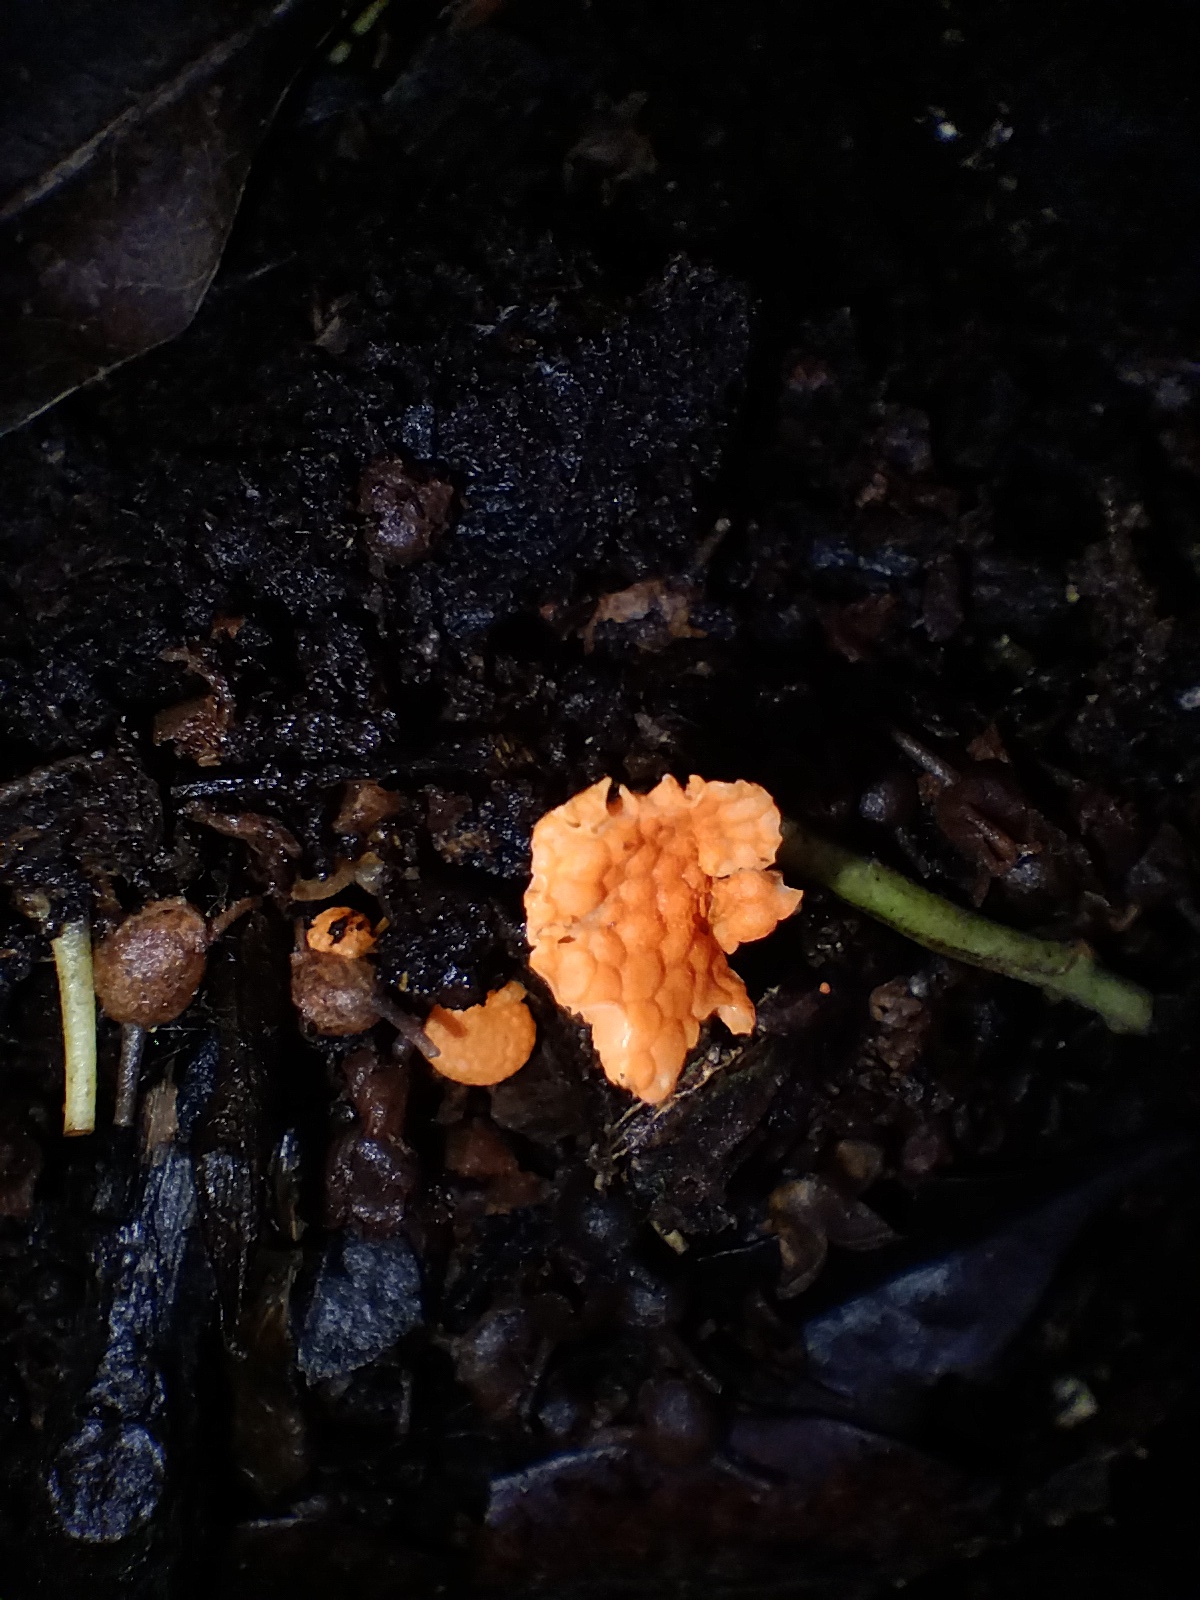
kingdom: Fungi
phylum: Basidiomycota
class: Agaricomycetes
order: Agaricales
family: Mycenaceae
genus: Favolaschia
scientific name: Favolaschia claudopus
